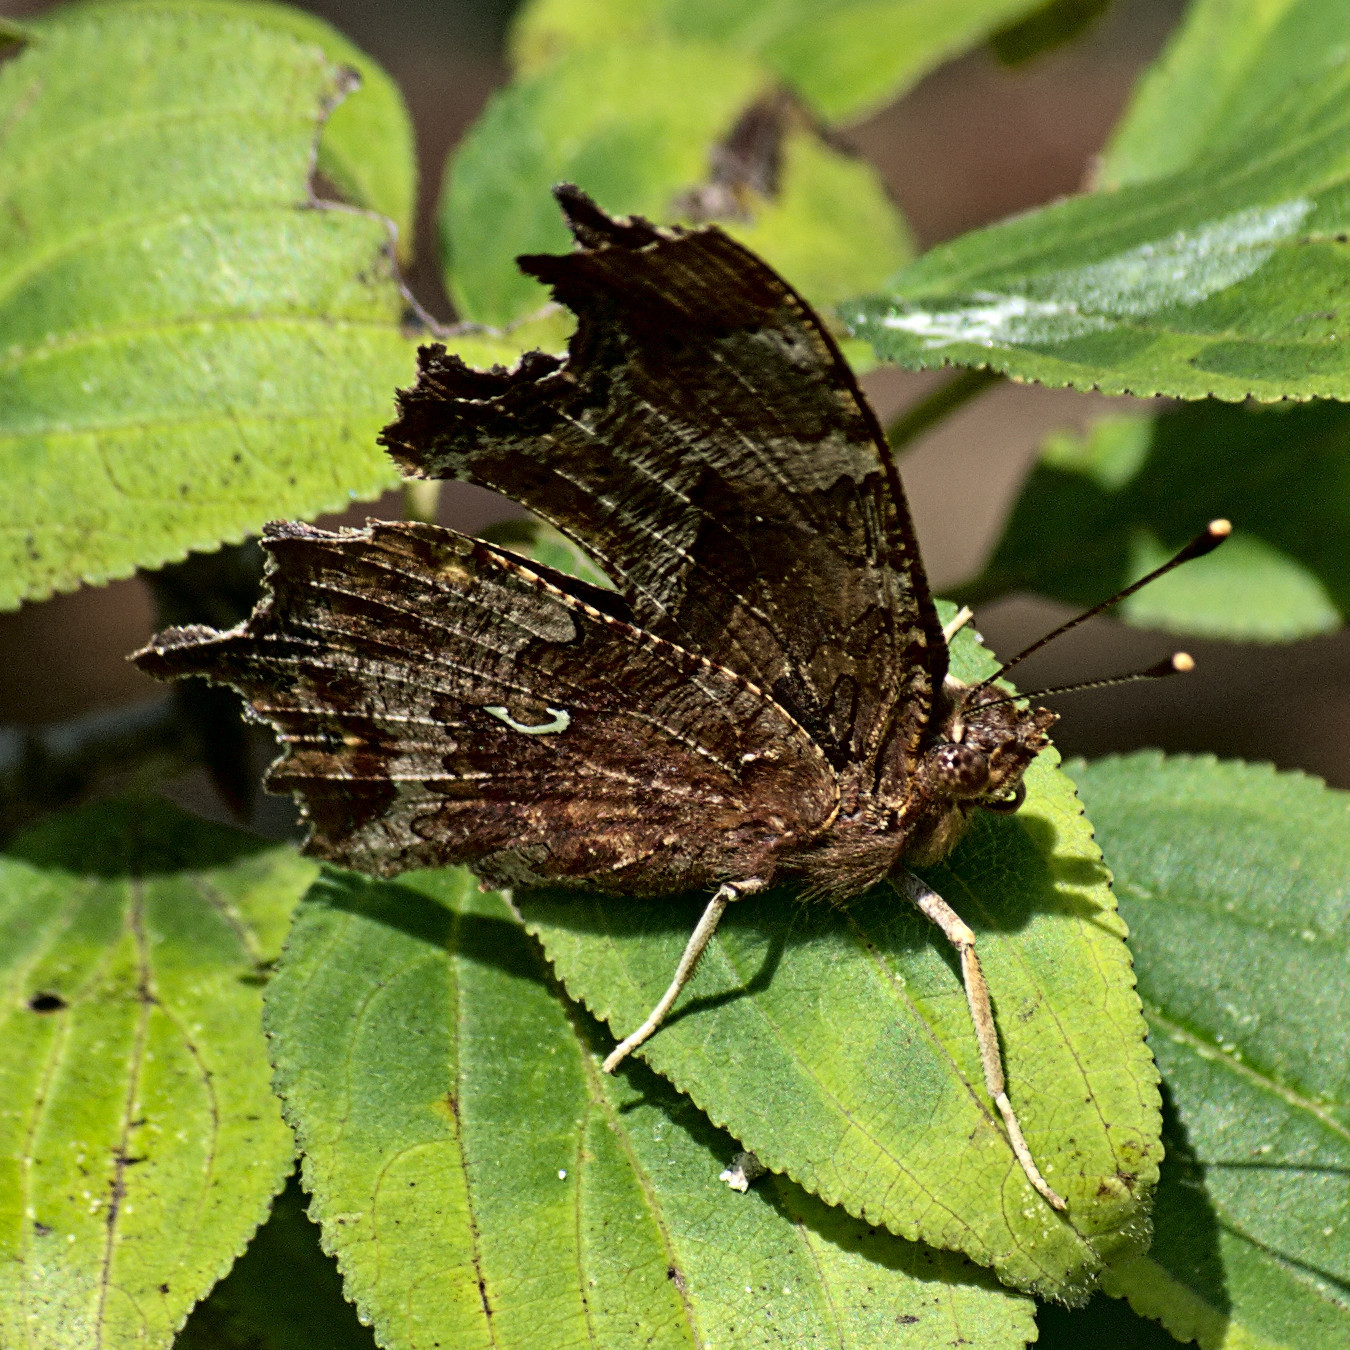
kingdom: Animalia
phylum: Arthropoda
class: Insecta
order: Lepidoptera
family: Nymphalidae
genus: Polygonia
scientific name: Polygonia comma
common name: Eastern comma
